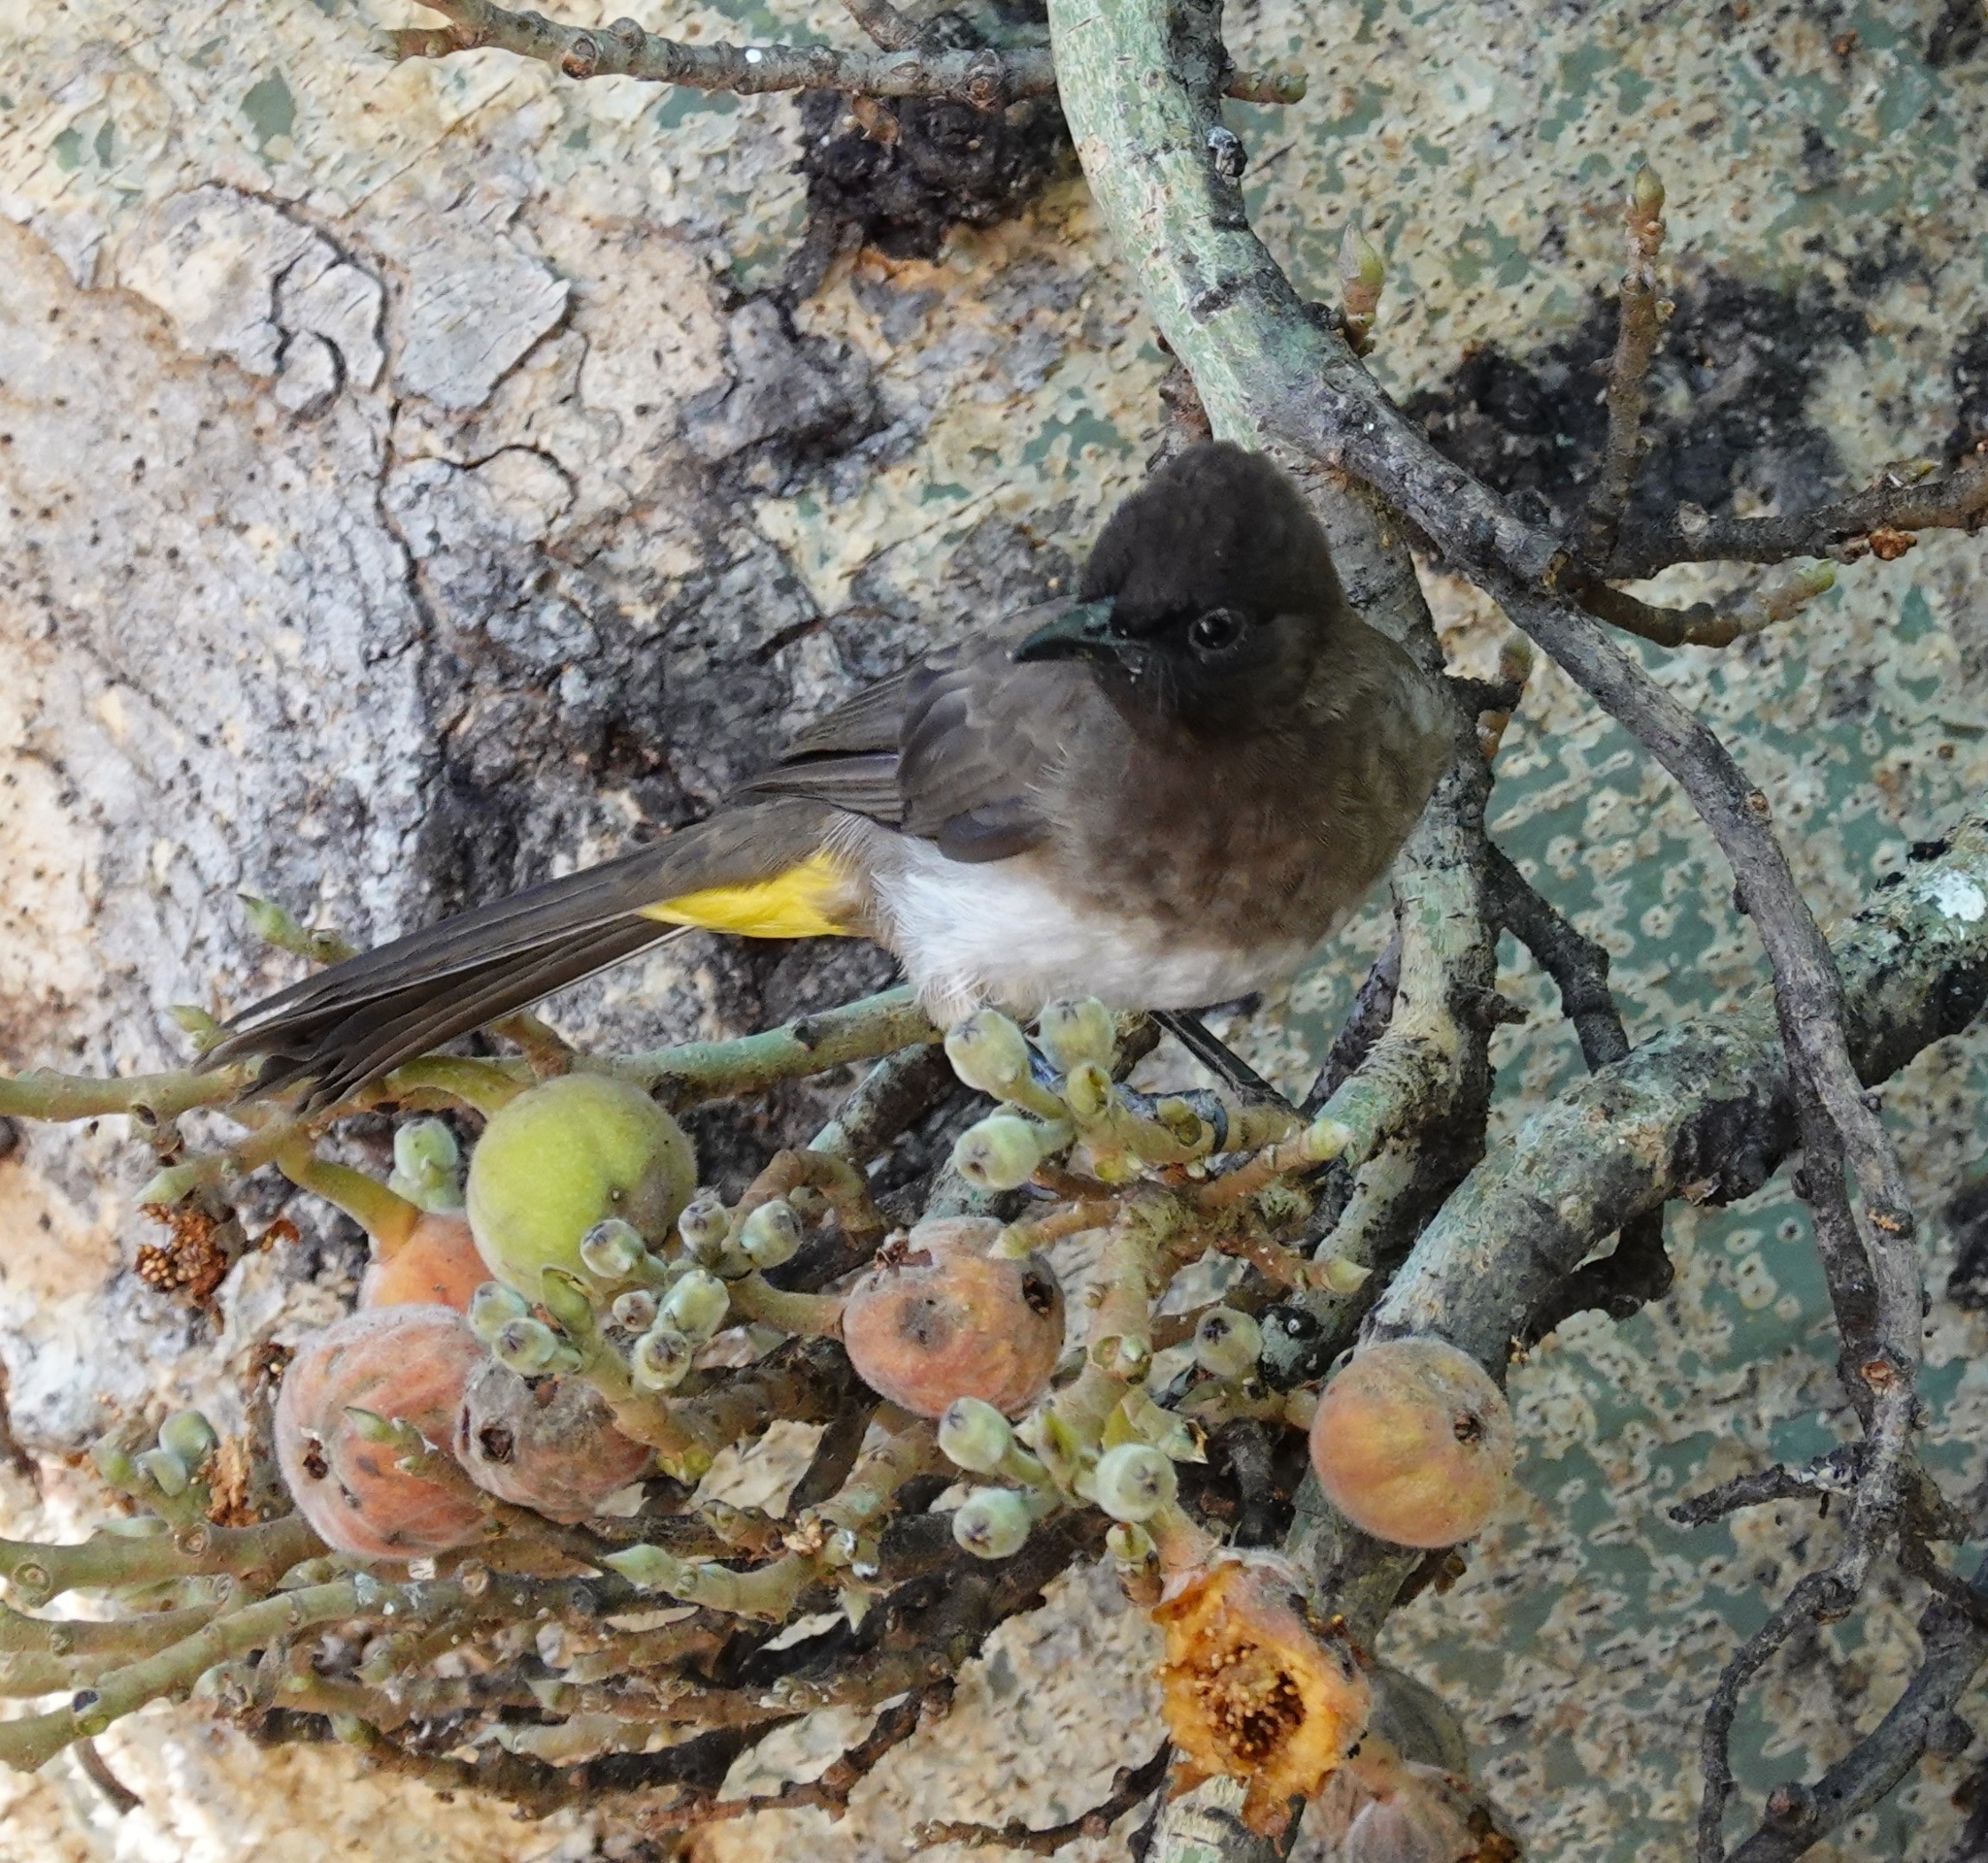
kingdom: Animalia
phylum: Chordata
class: Aves
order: Passeriformes
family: Pycnonotidae
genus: Pycnonotus
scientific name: Pycnonotus barbatus
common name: Common bulbul
